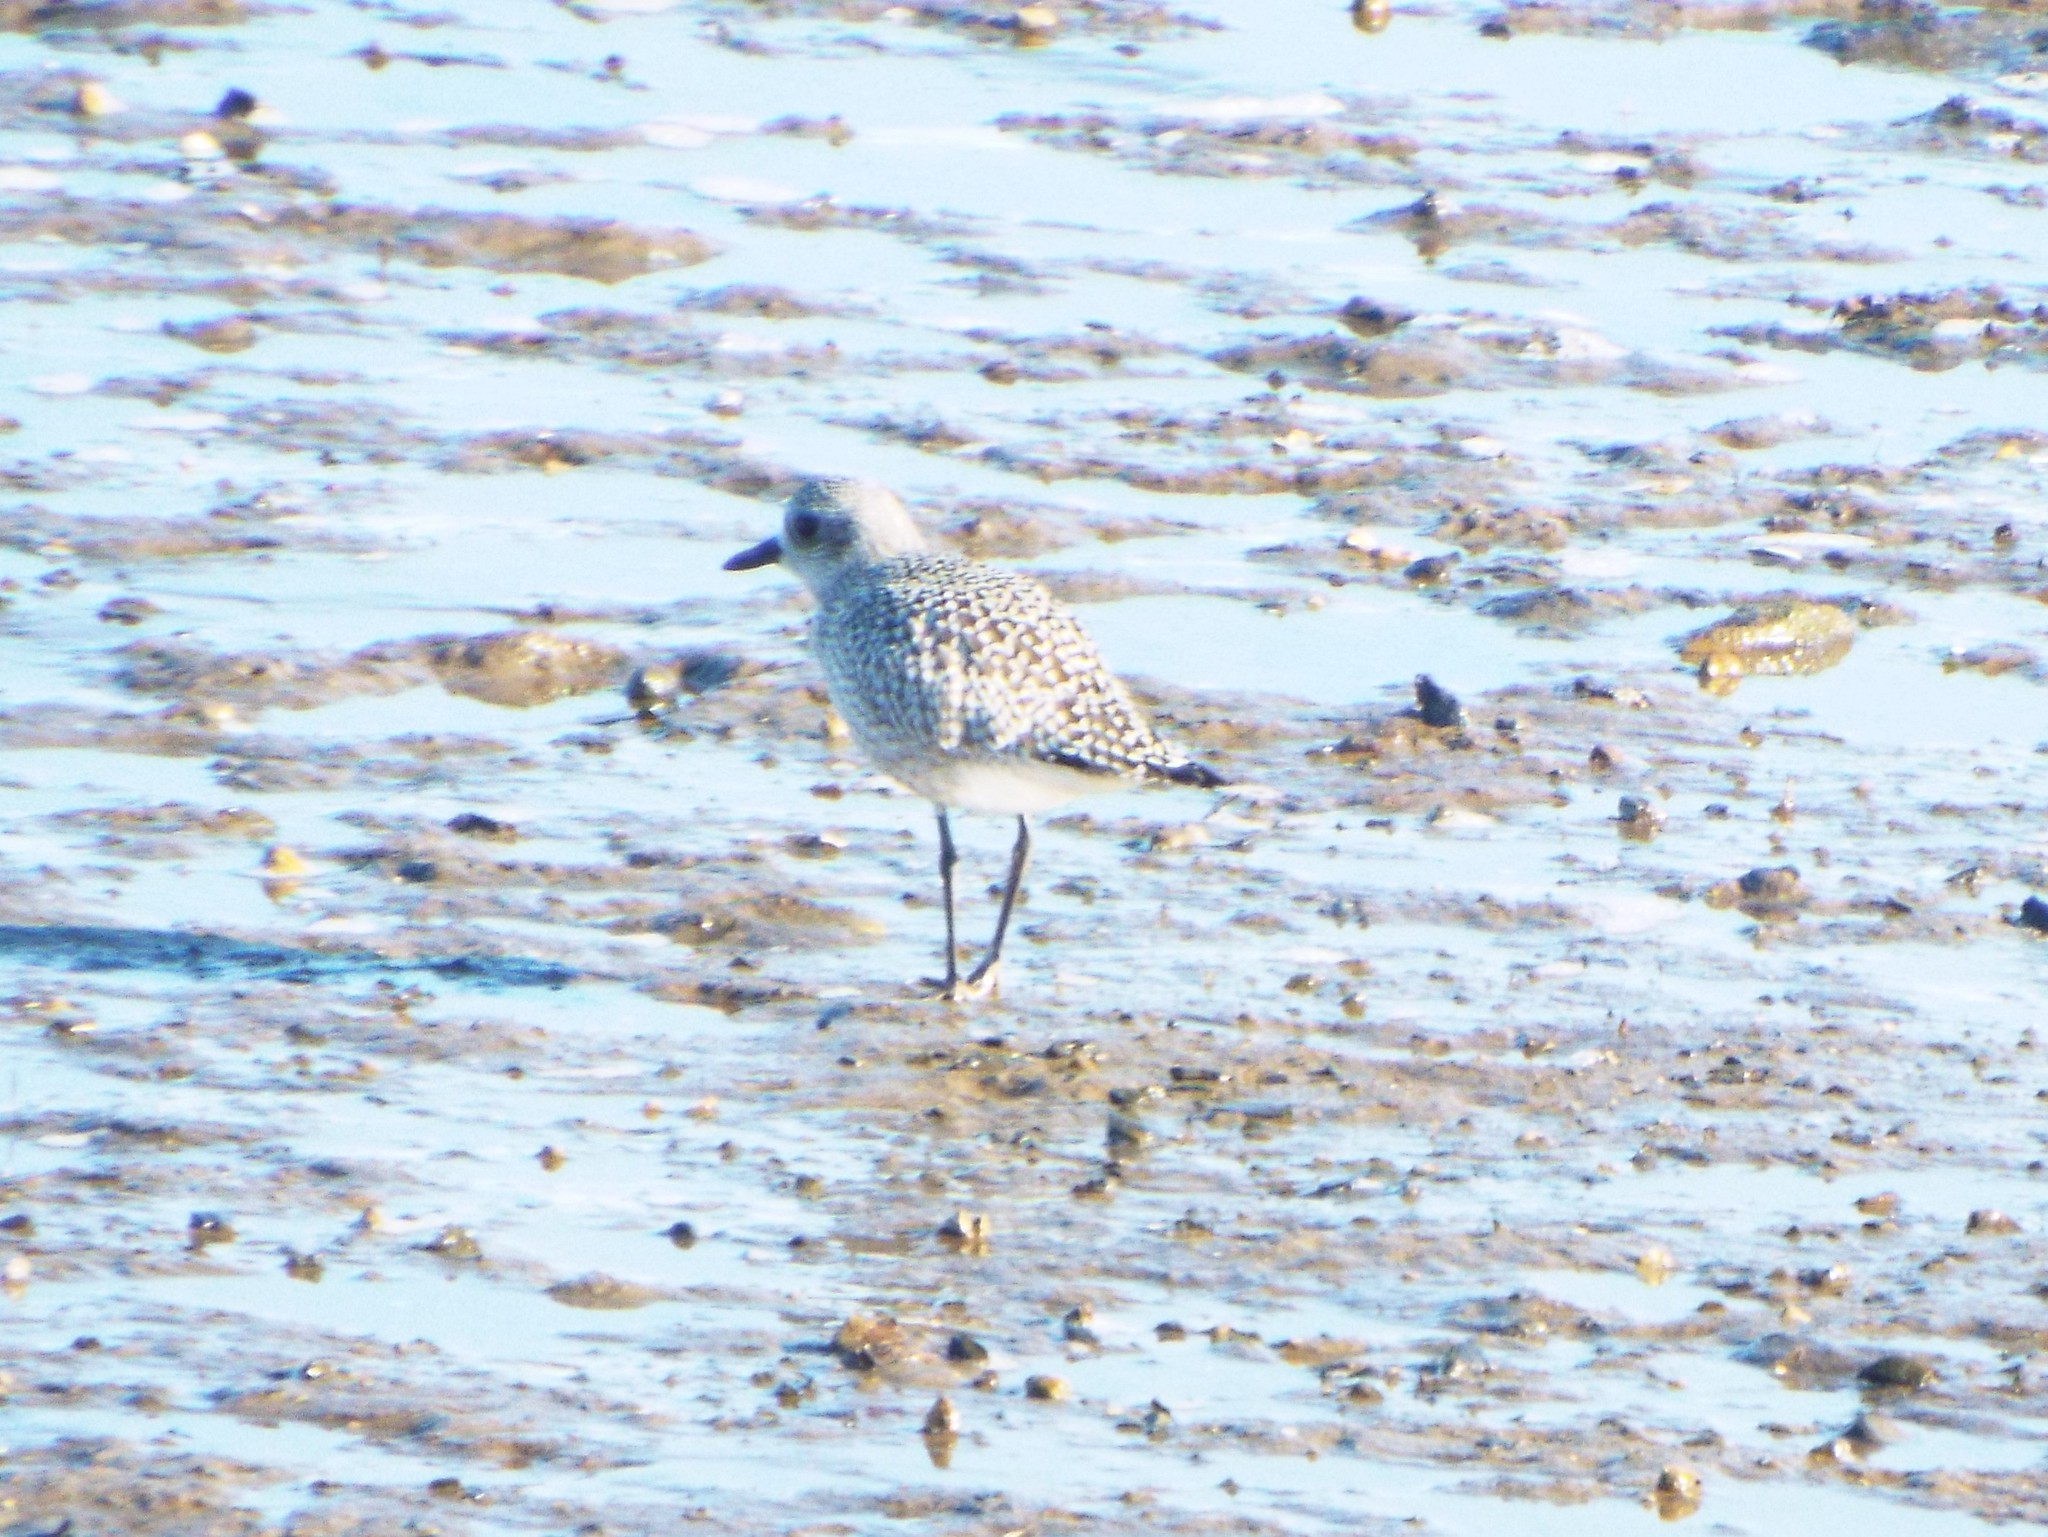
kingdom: Animalia
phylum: Chordata
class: Aves
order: Charadriiformes
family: Charadriidae
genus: Pluvialis
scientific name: Pluvialis squatarola
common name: Grey plover
